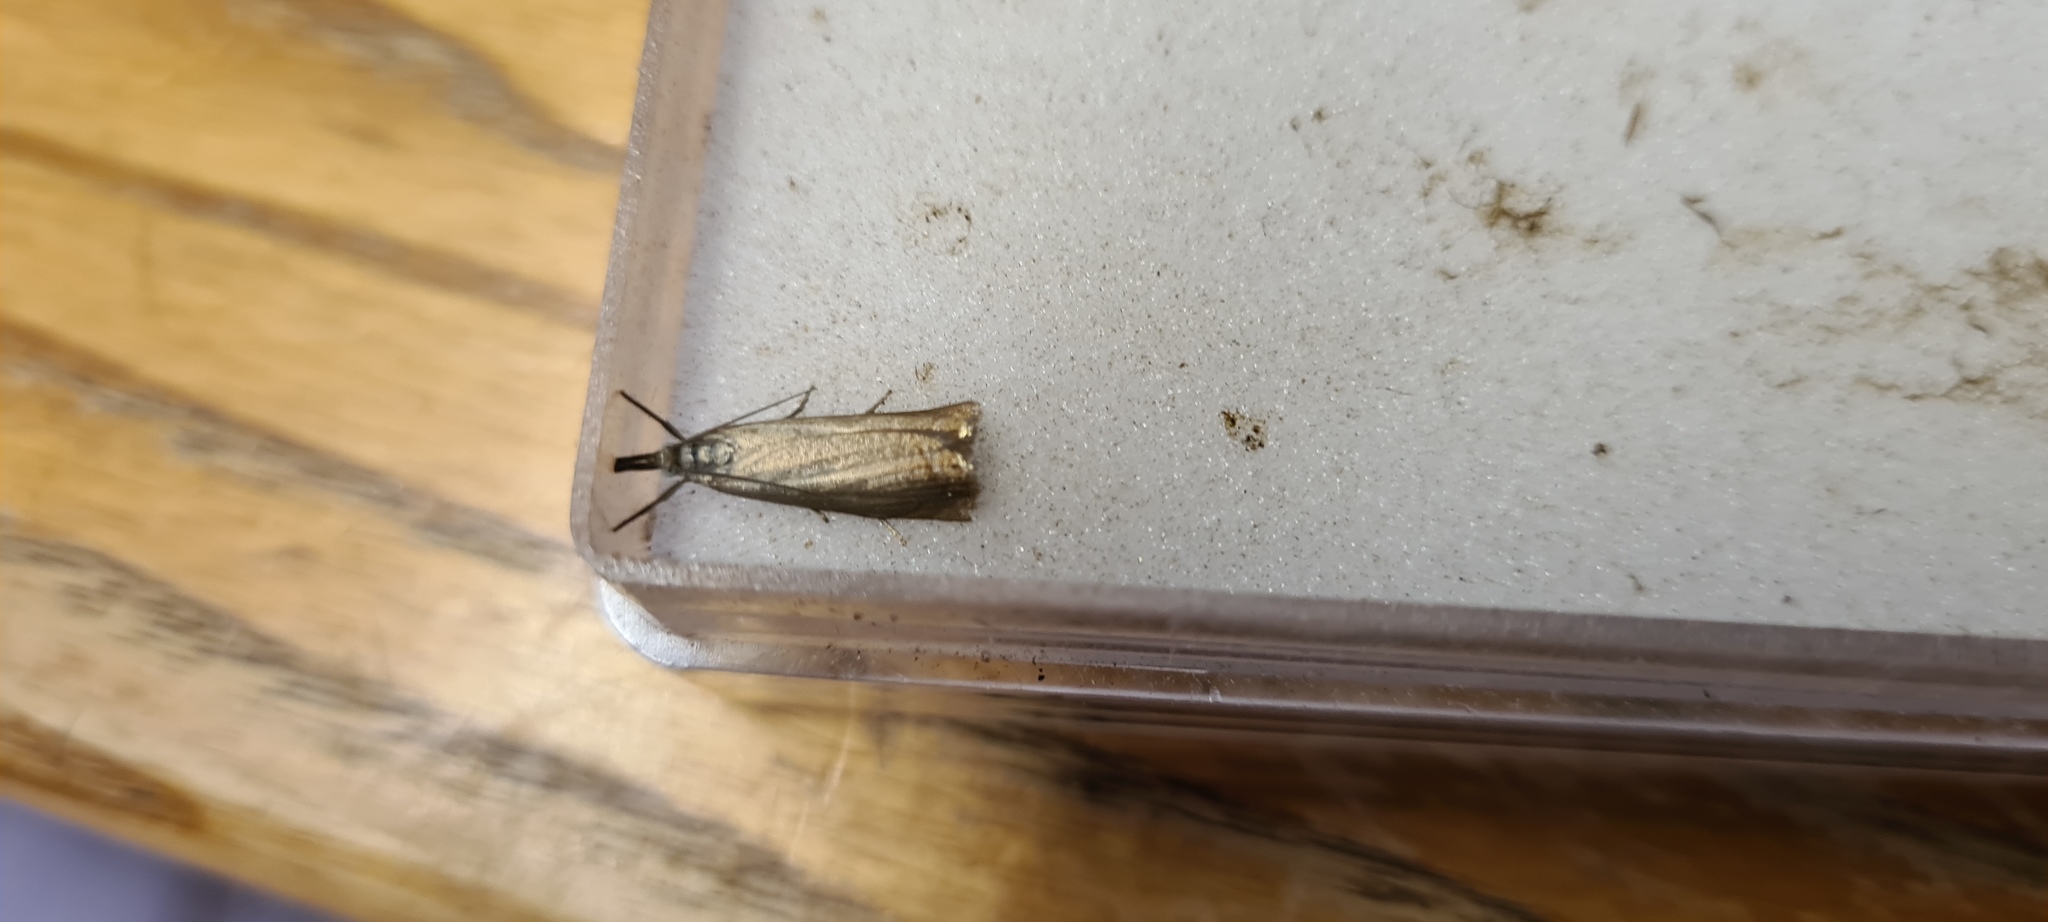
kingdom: Animalia
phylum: Arthropoda
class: Insecta
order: Lepidoptera
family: Crambidae
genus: Chrysoteuchia
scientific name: Chrysoteuchia culmella
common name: Garden grass-veneer
